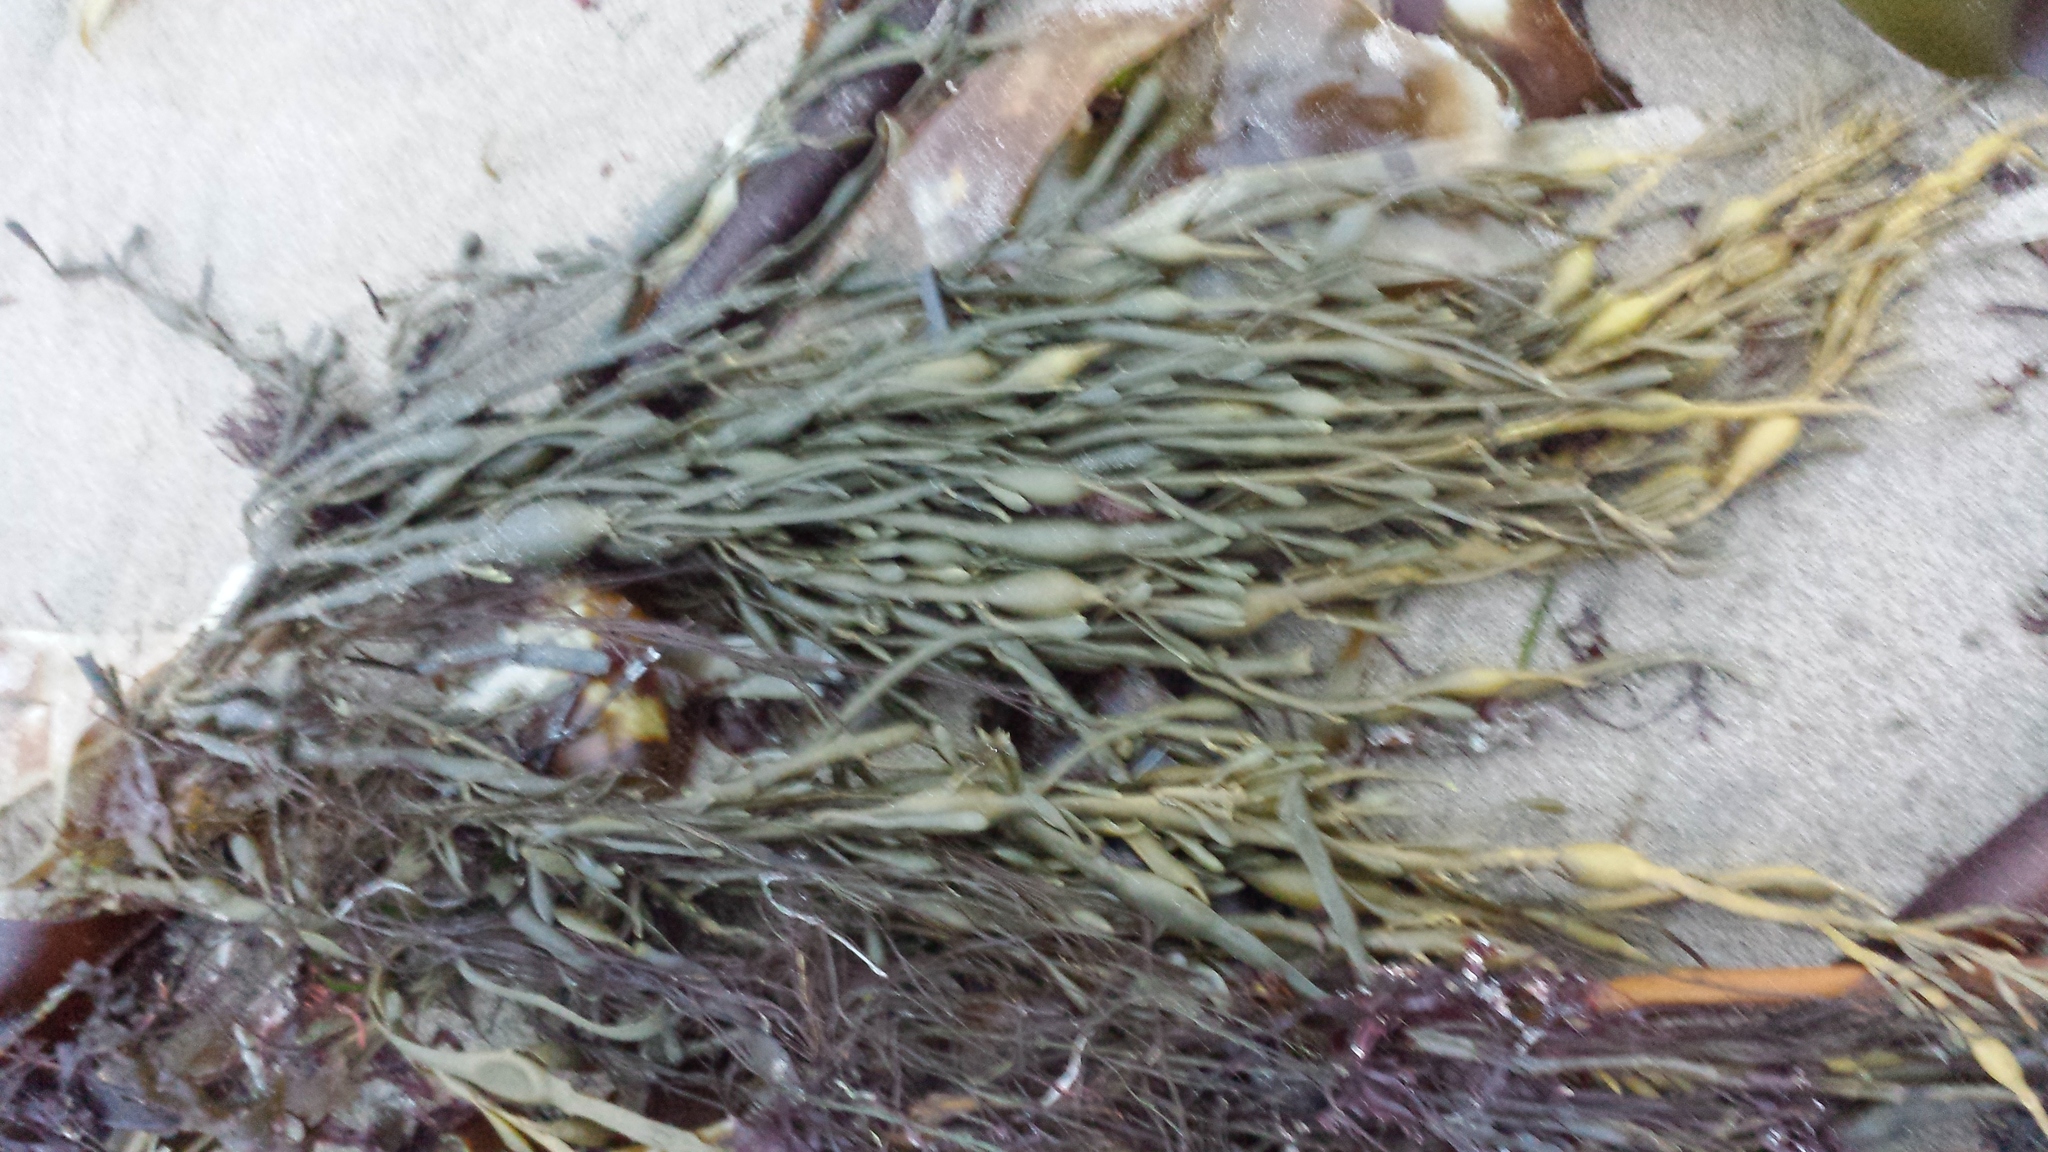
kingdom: Chromista
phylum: Ochrophyta
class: Phaeophyceae
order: Fucales
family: Fucaceae
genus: Ascophyllum
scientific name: Ascophyllum nodosum
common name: Knotted wrack
